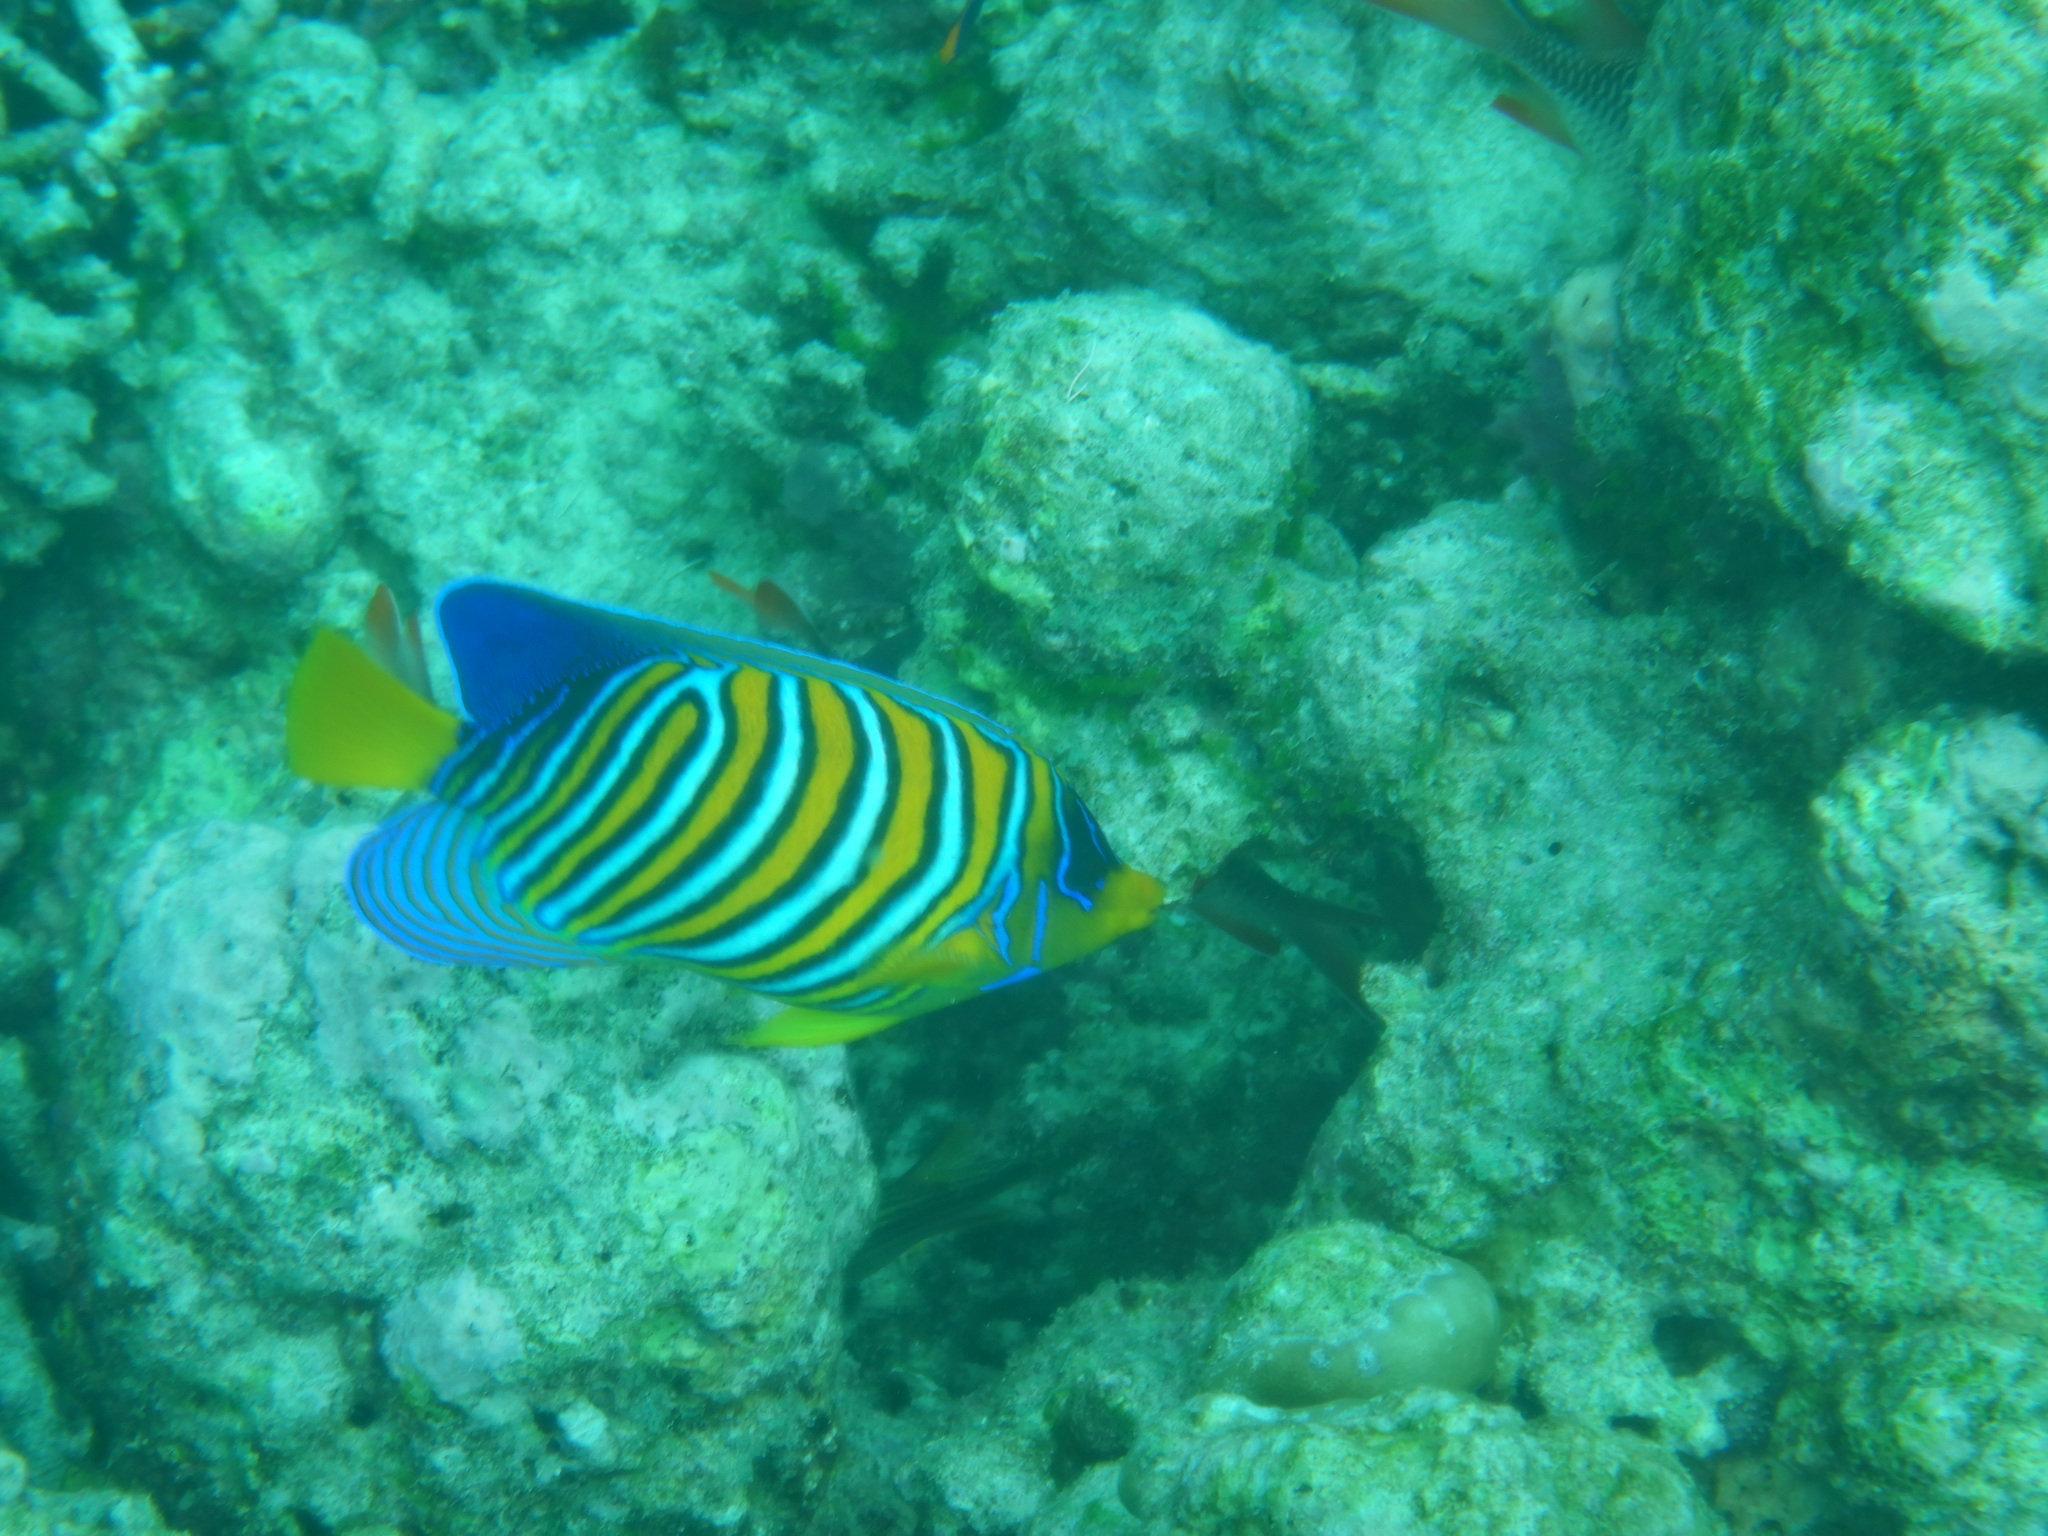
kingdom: Animalia
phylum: Chordata
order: Perciformes
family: Pomacanthidae
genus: Pygoplites
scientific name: Pygoplites diacanthus
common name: Regal angelfish
